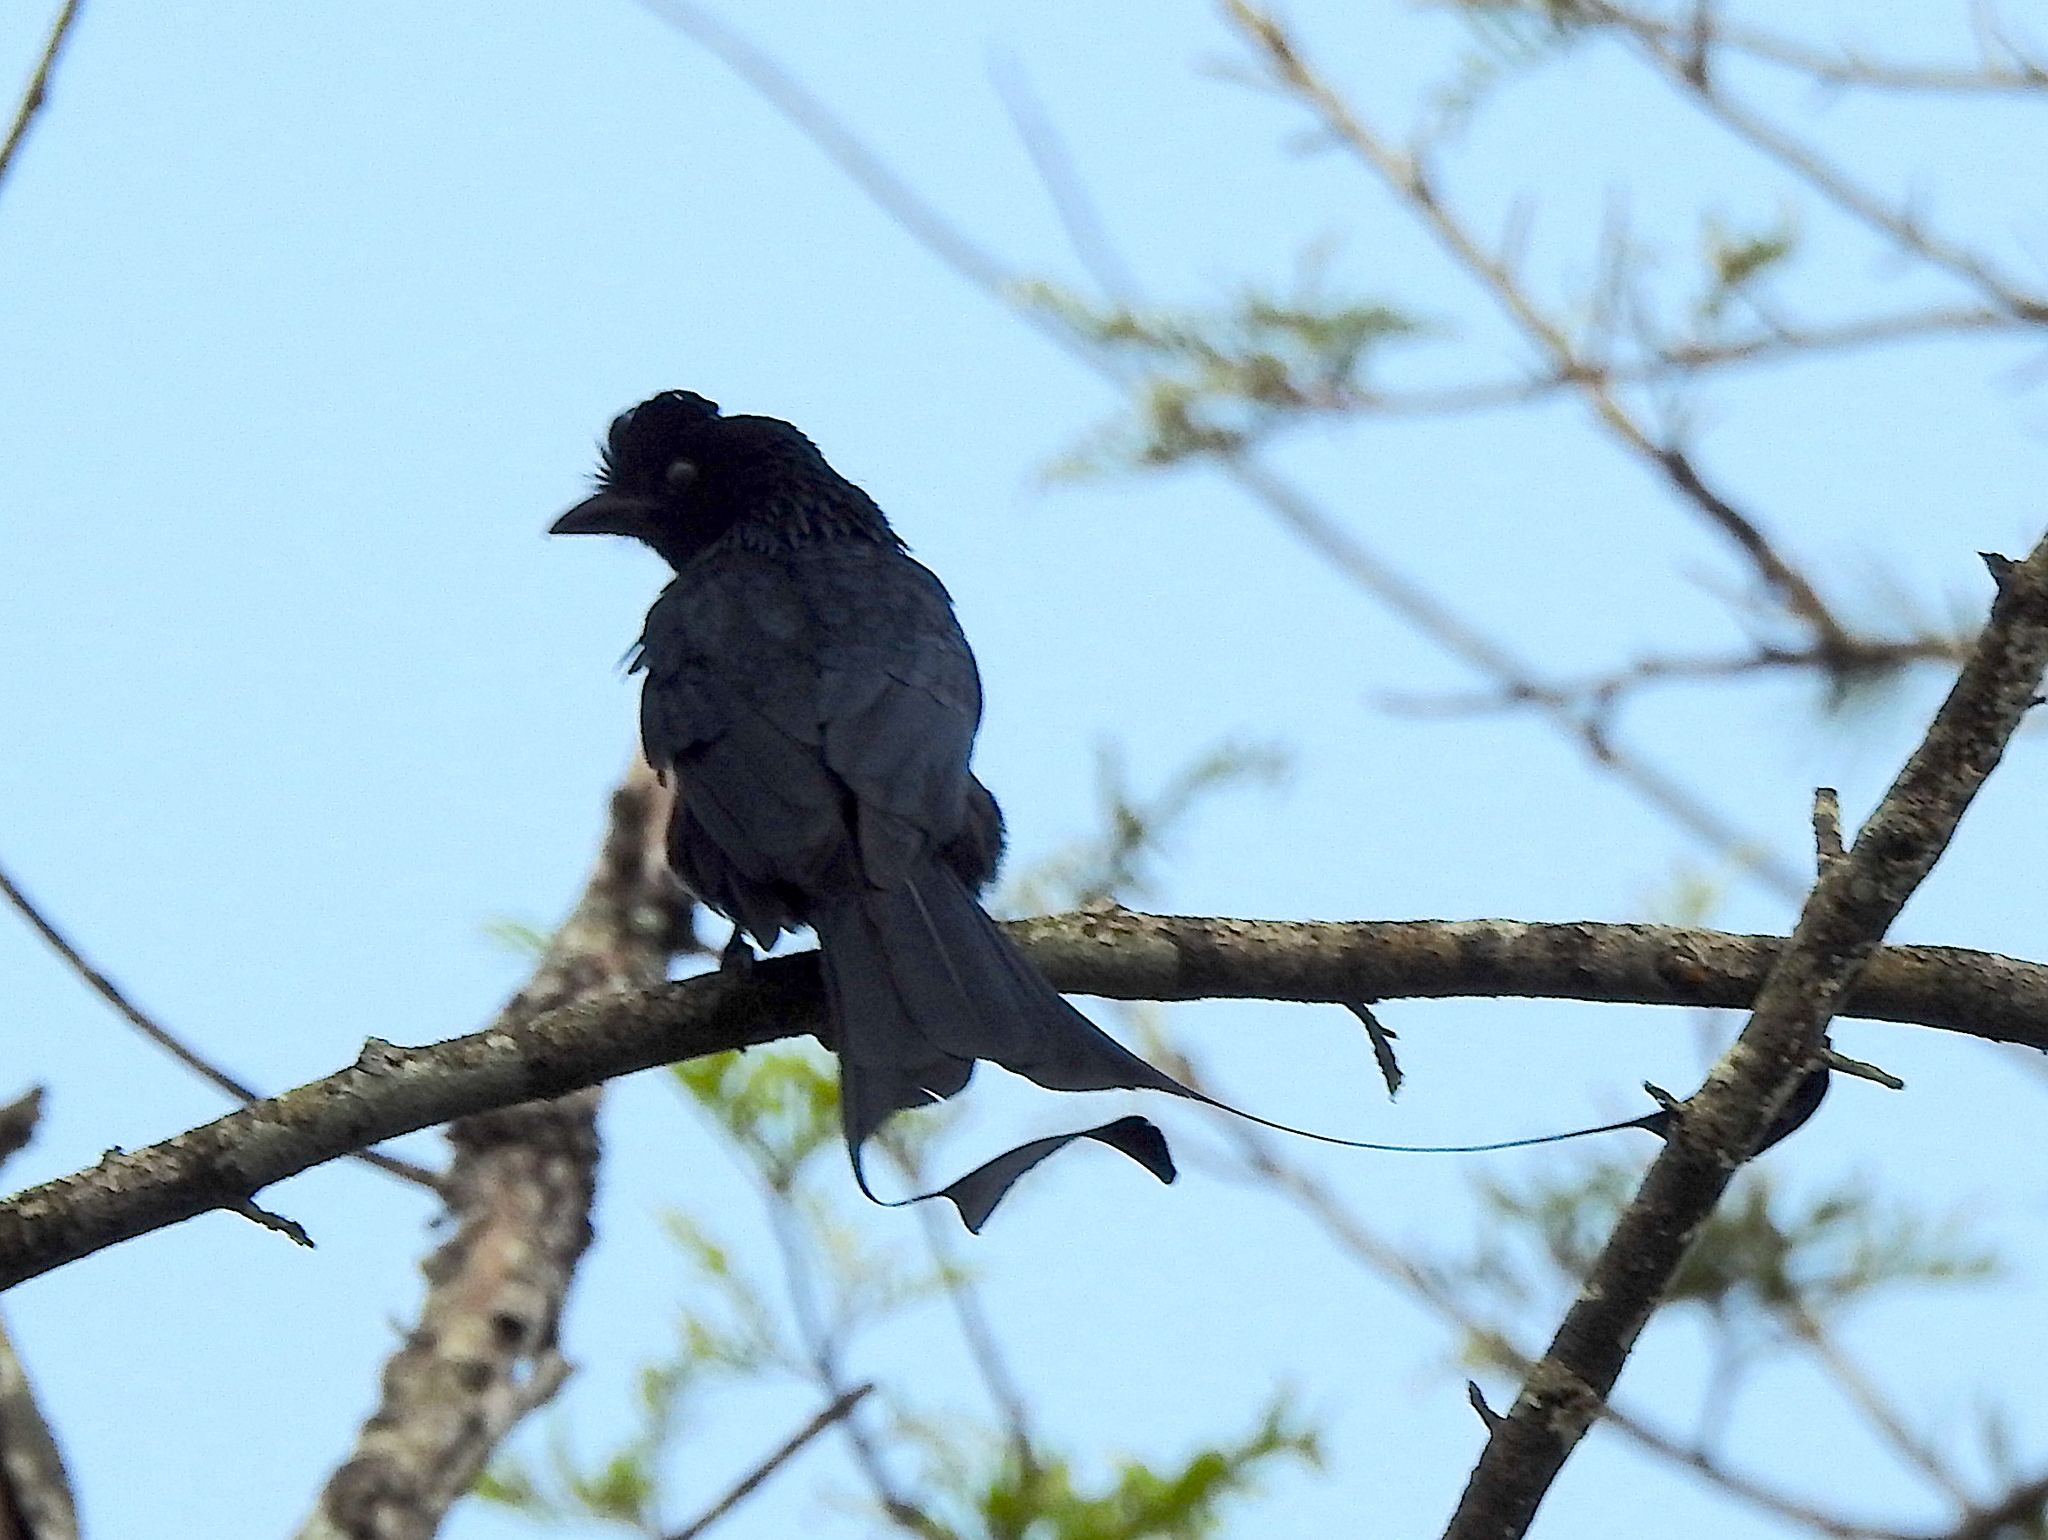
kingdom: Animalia
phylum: Chordata
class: Aves
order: Passeriformes
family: Dicruridae
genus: Dicrurus
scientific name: Dicrurus paradiseus
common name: Greater racket-tailed drongo
